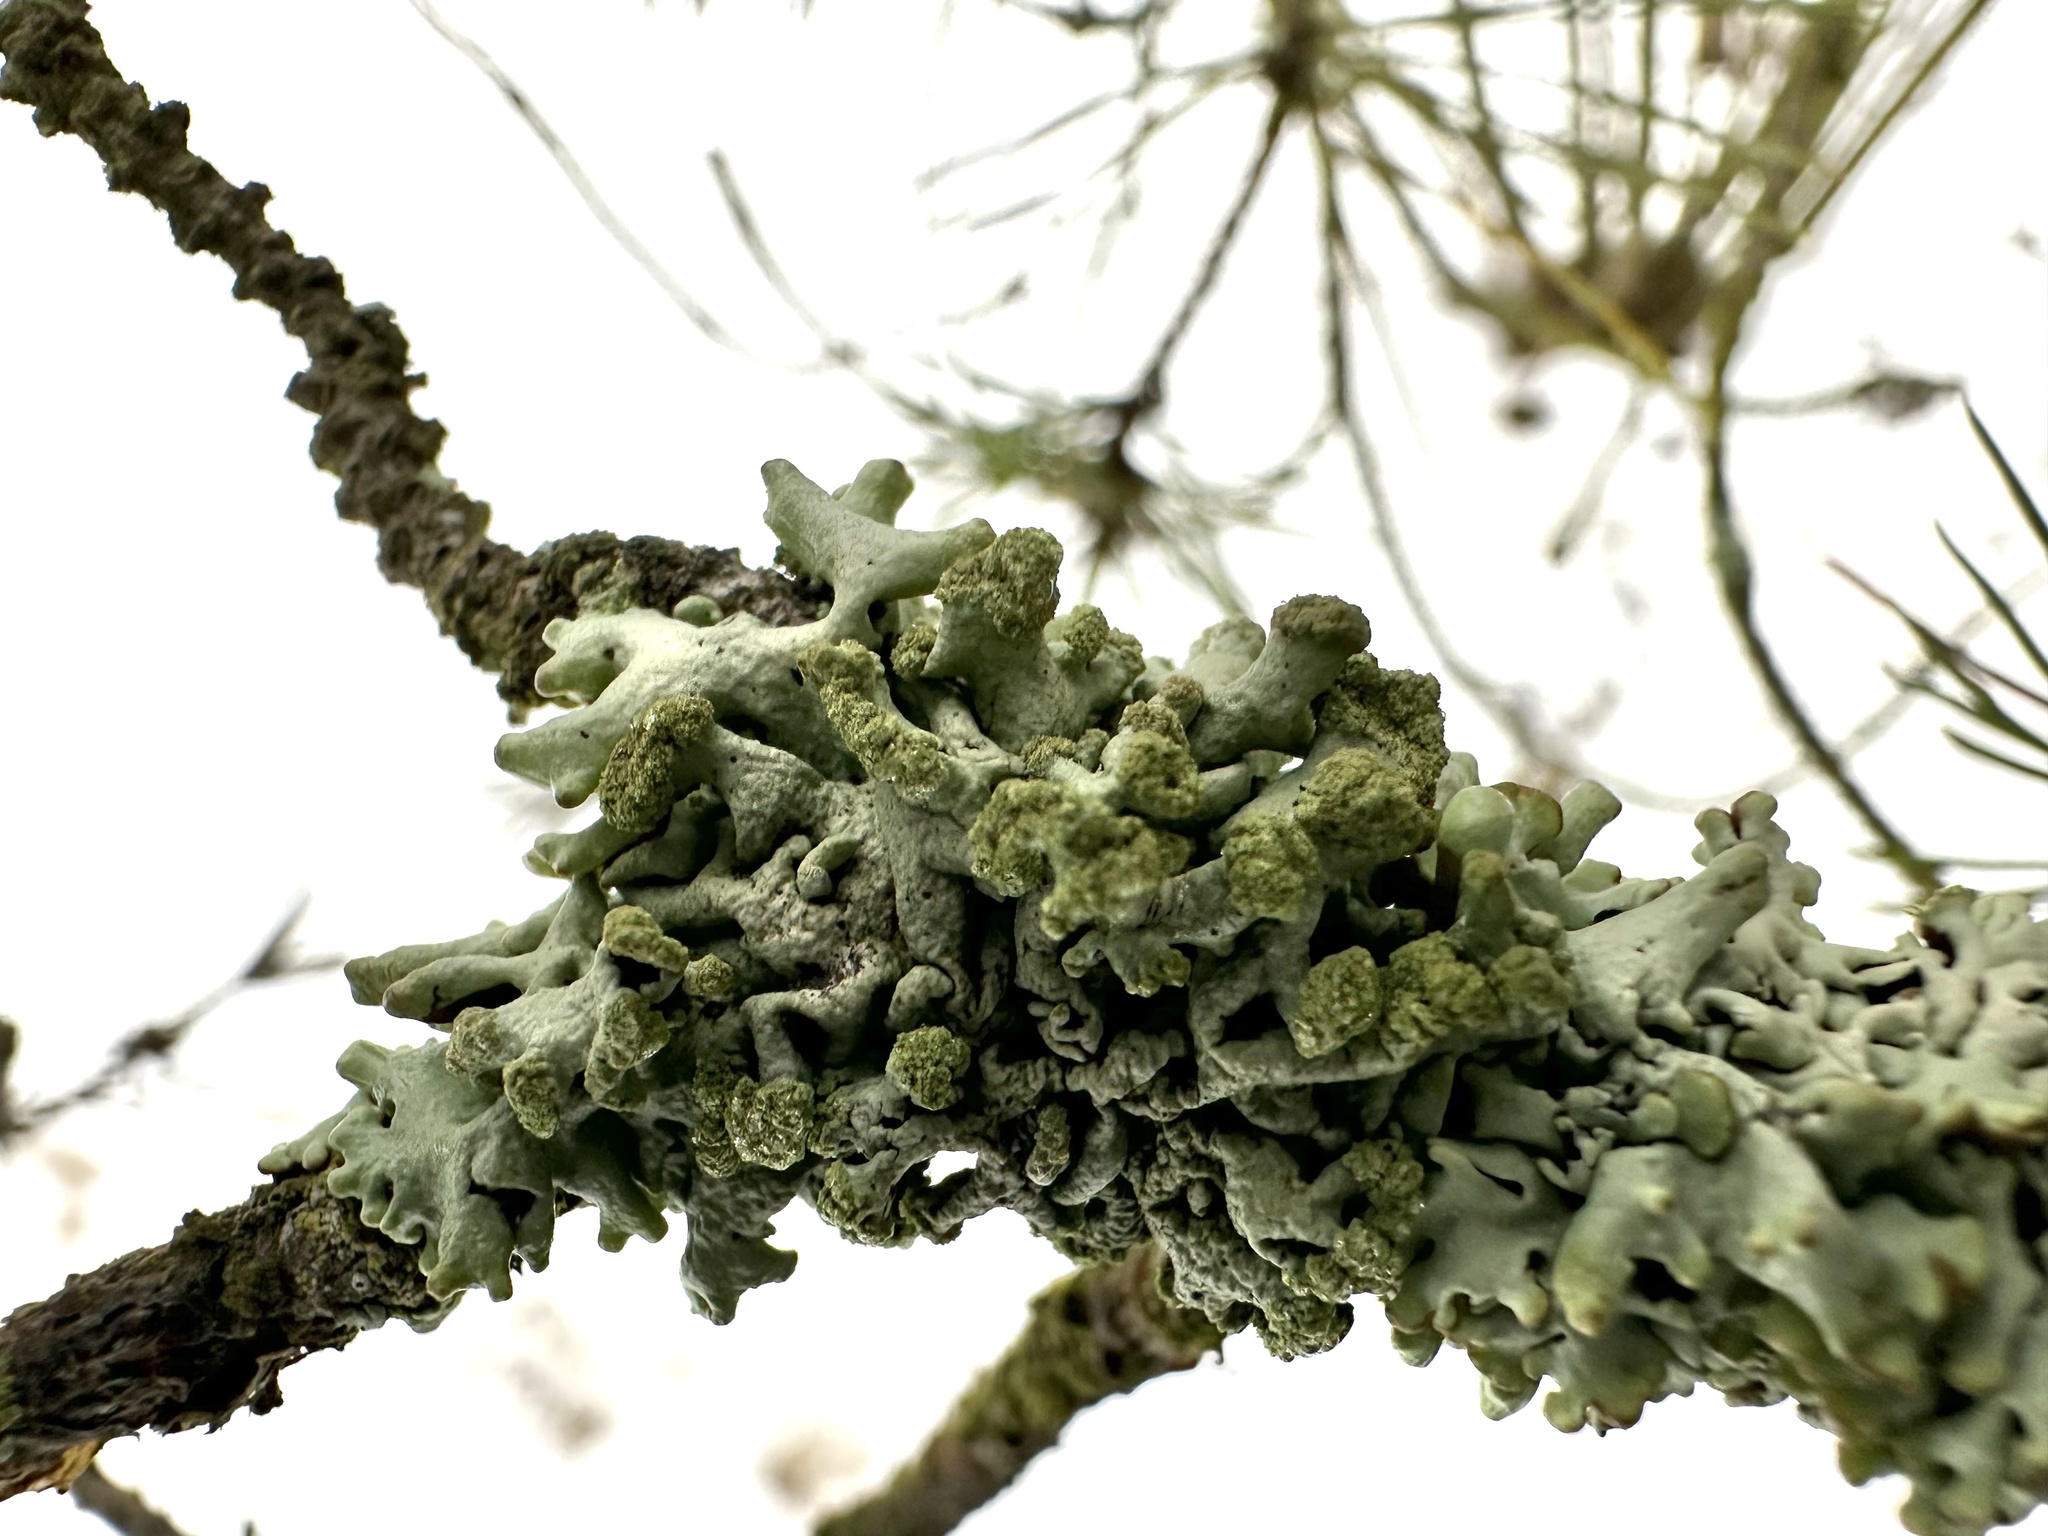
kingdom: Fungi
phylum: Ascomycota
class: Lecanoromycetes
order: Lecanorales
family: Parmeliaceae
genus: Hypogymnia
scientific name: Hypogymnia tubulosa
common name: Powder-headed tube lichen
